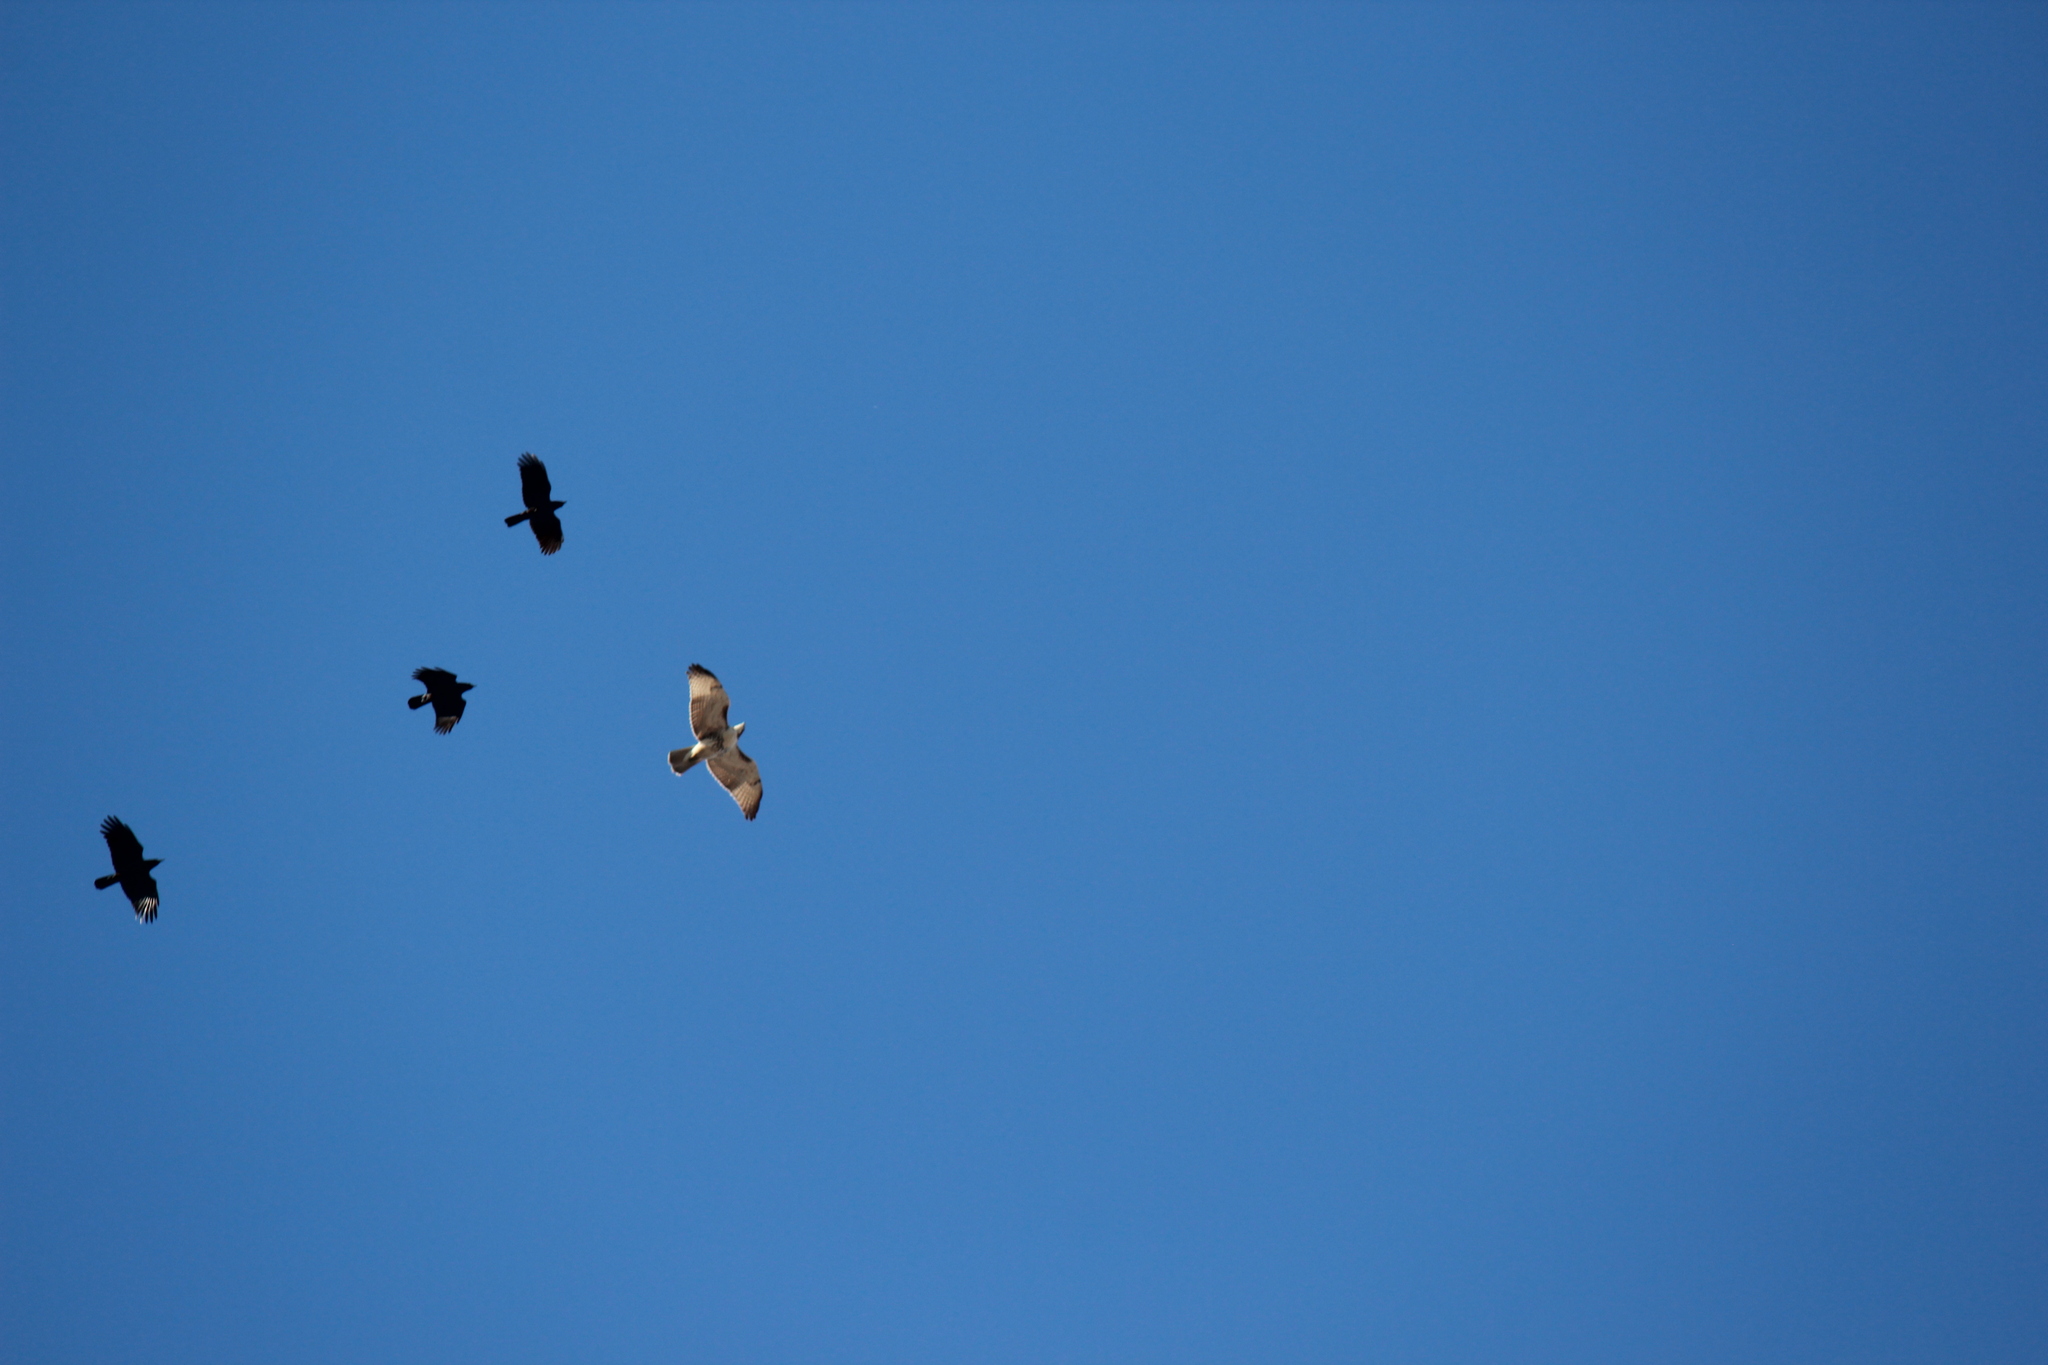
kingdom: Animalia
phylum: Chordata
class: Aves
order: Accipitriformes
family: Accipitridae
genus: Buteo
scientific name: Buteo jamaicensis
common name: Red-tailed hawk
